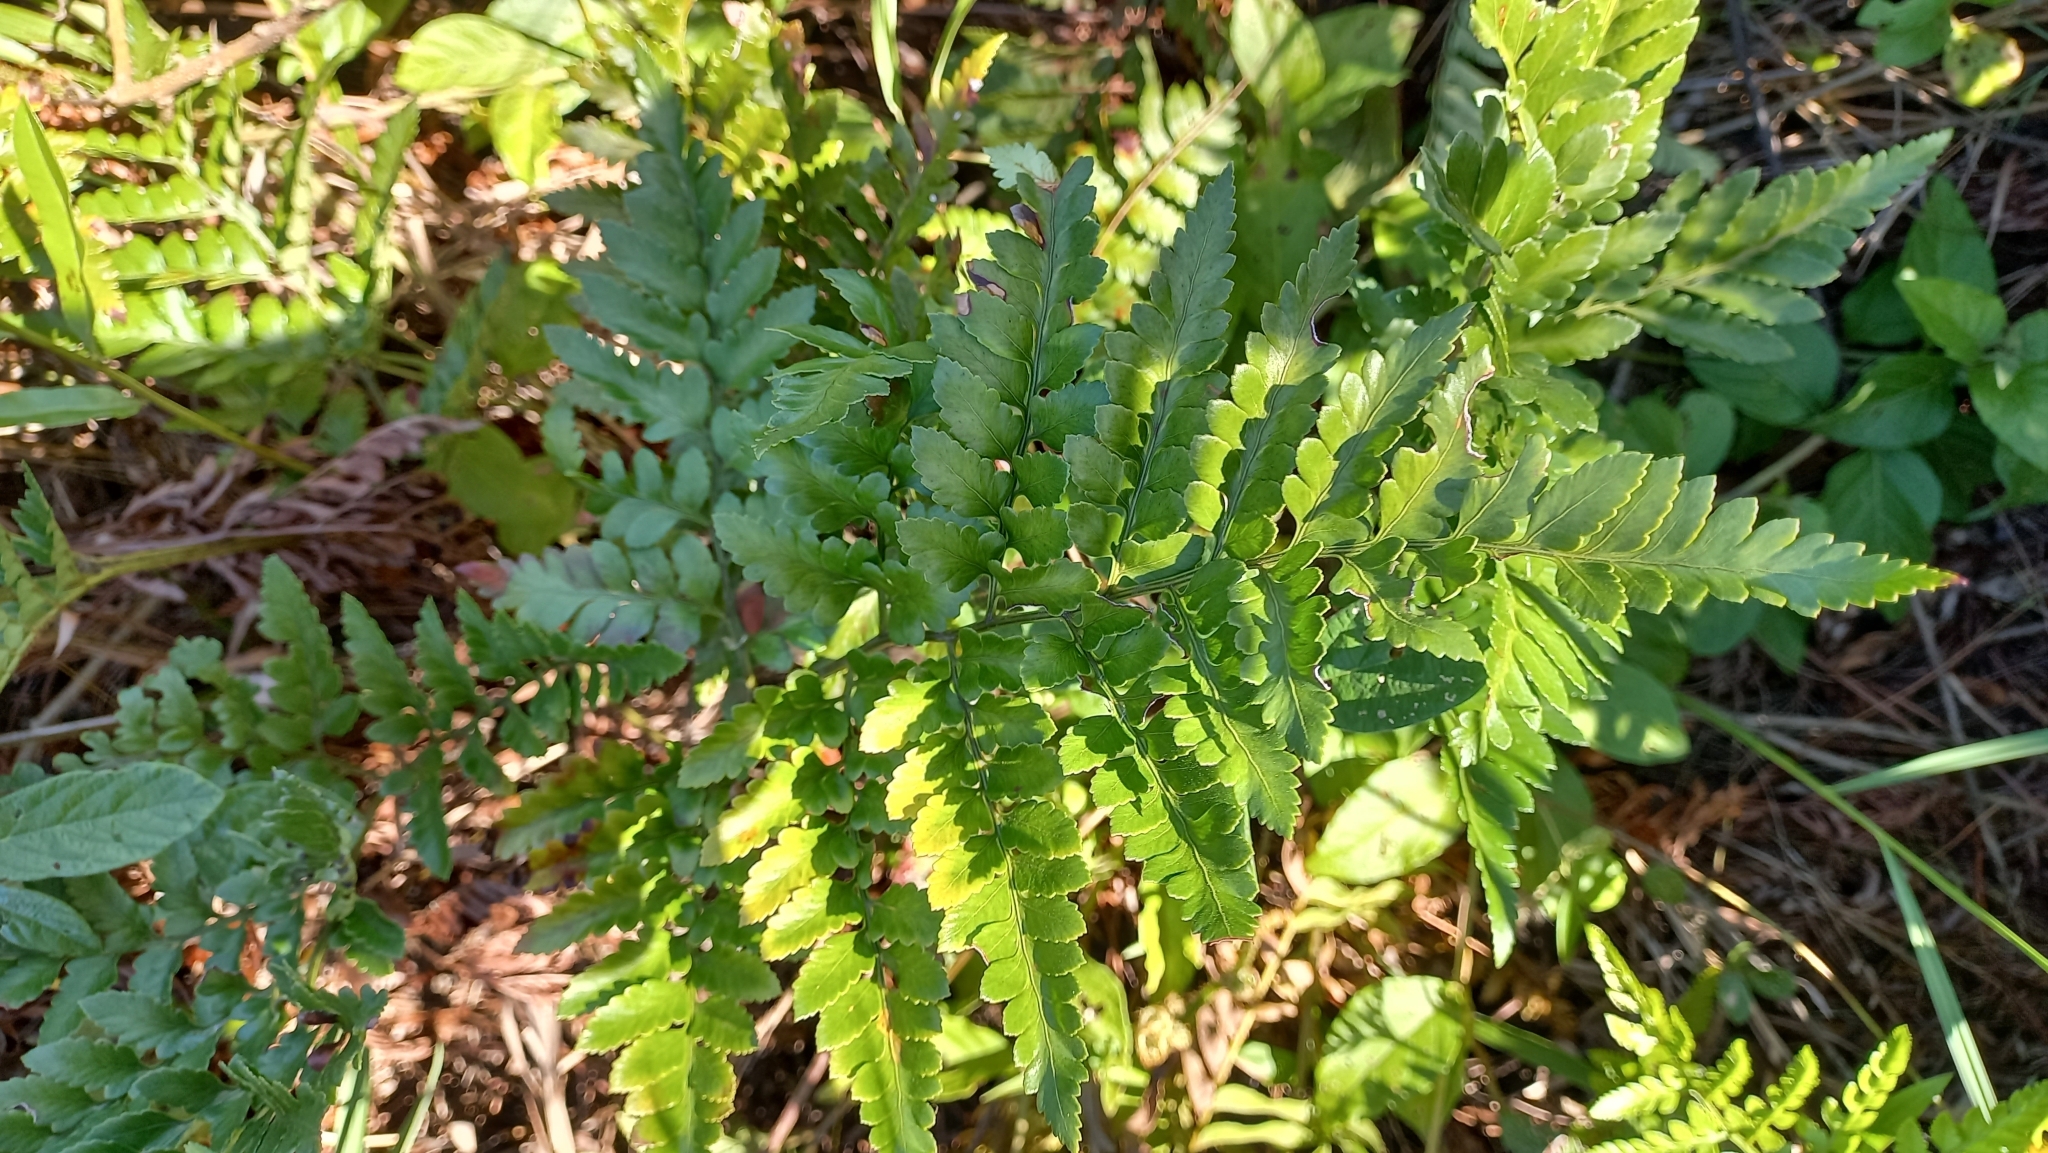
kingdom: Plantae
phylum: Tracheophyta
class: Polypodiopsida
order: Polypodiales
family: Dryopteridaceae
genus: Rumohra
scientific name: Rumohra adiantiformis
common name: Leather fern
